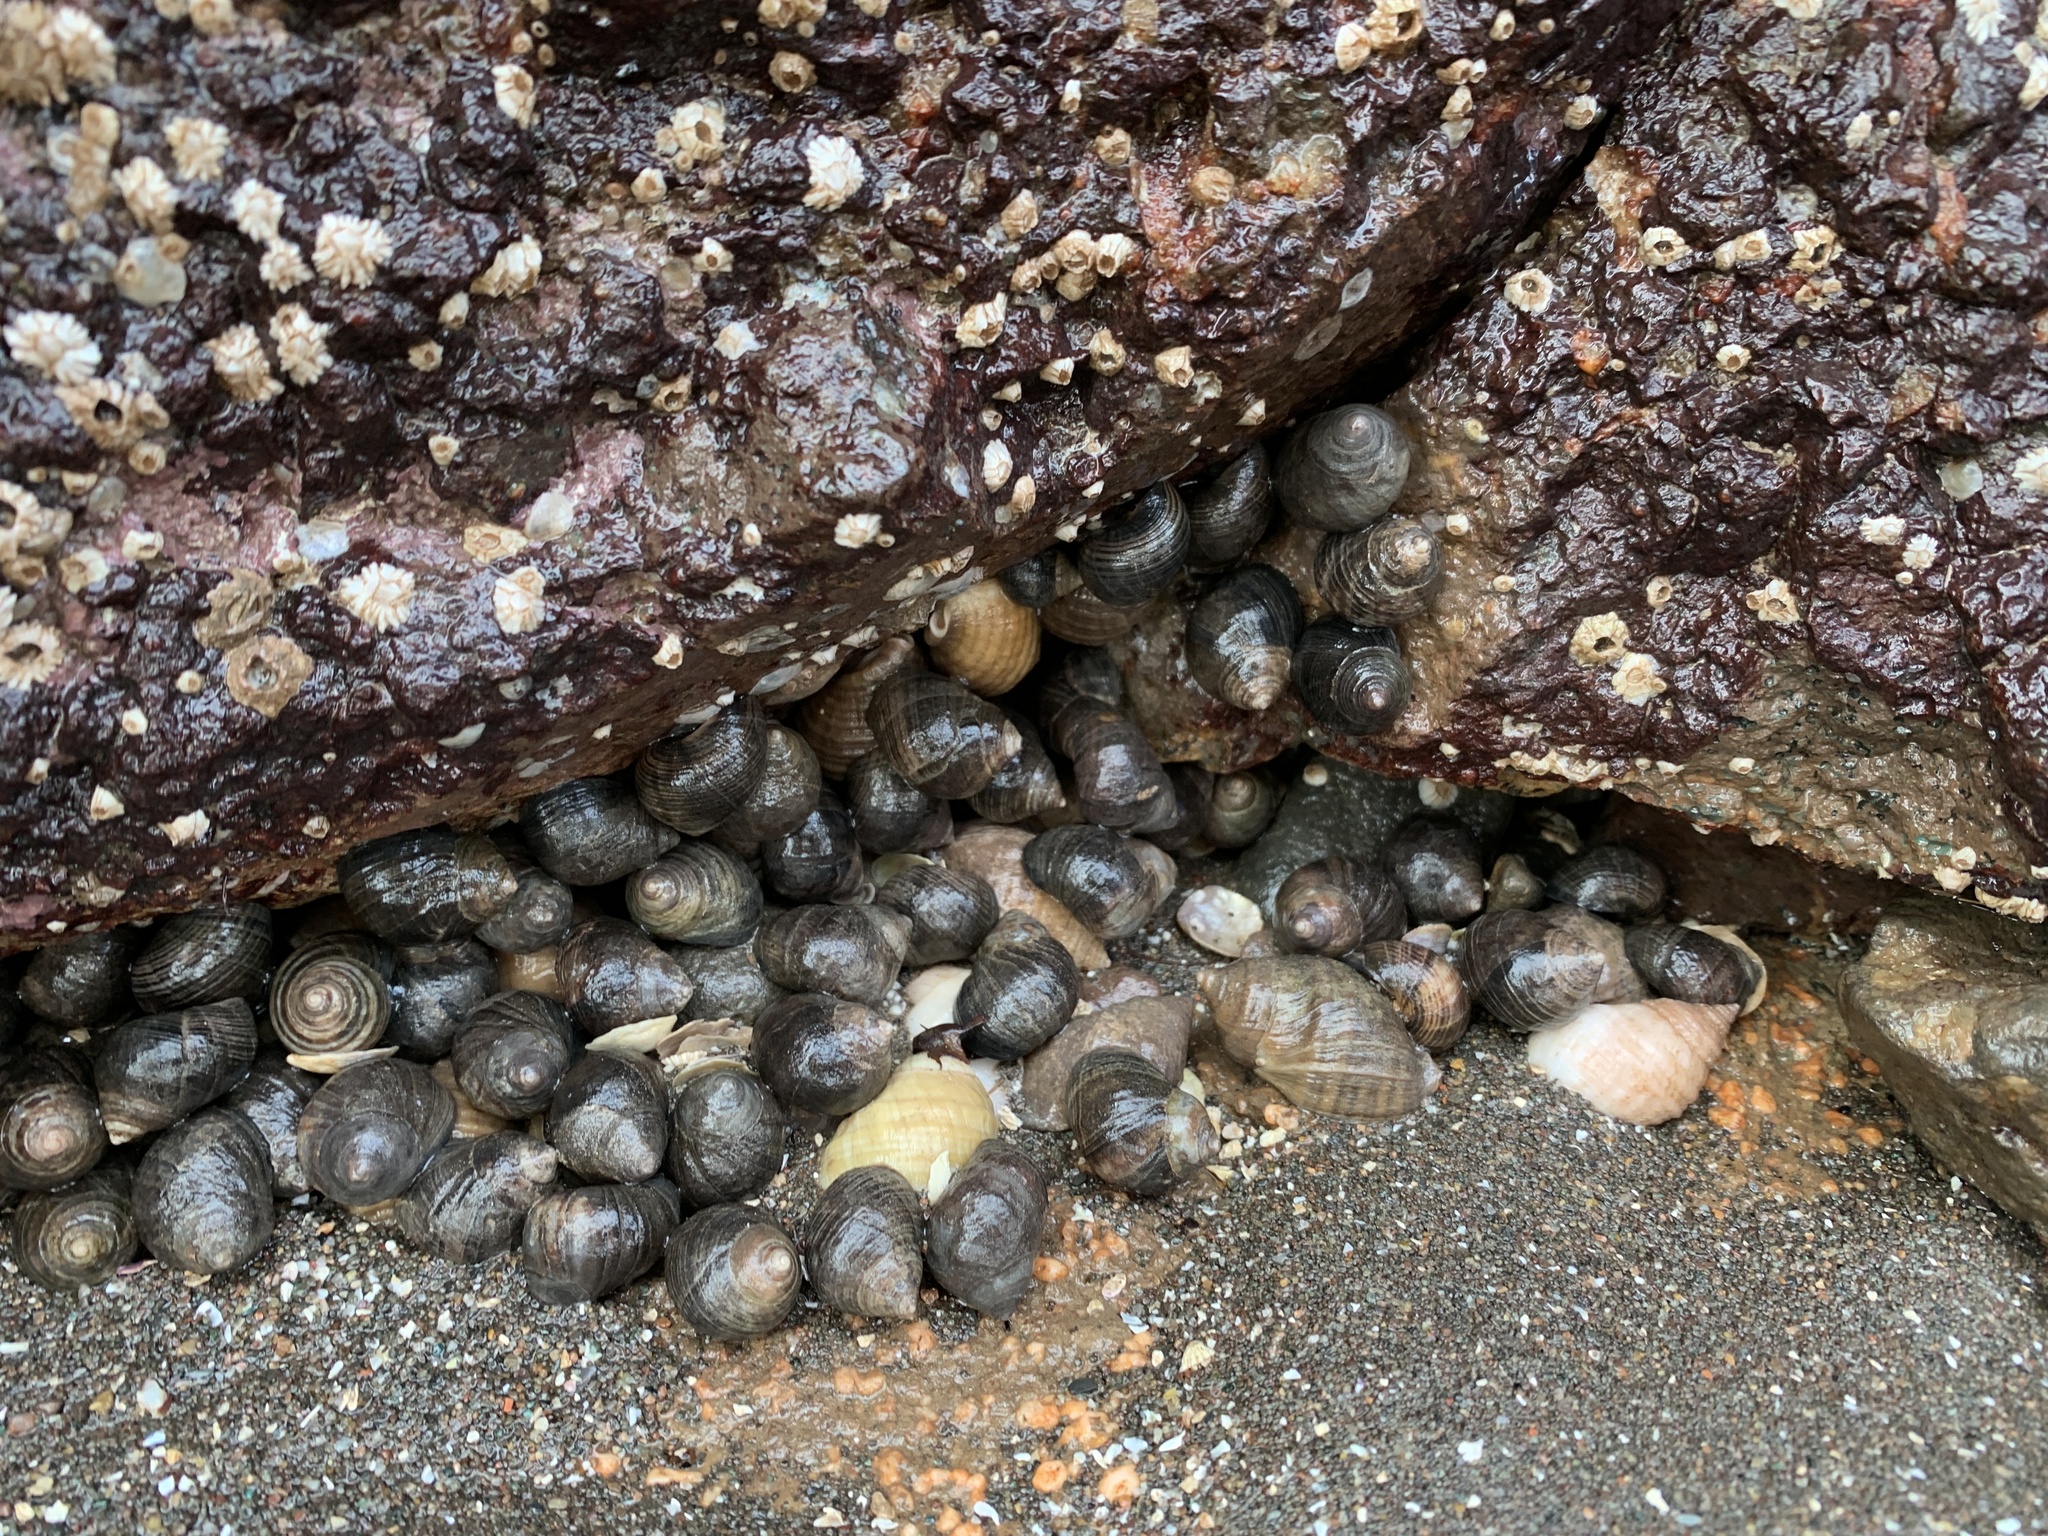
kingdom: Animalia
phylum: Mollusca
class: Gastropoda
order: Littorinimorpha
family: Littorinidae
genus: Littorina
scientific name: Littorina littorea
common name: Common periwinkle
